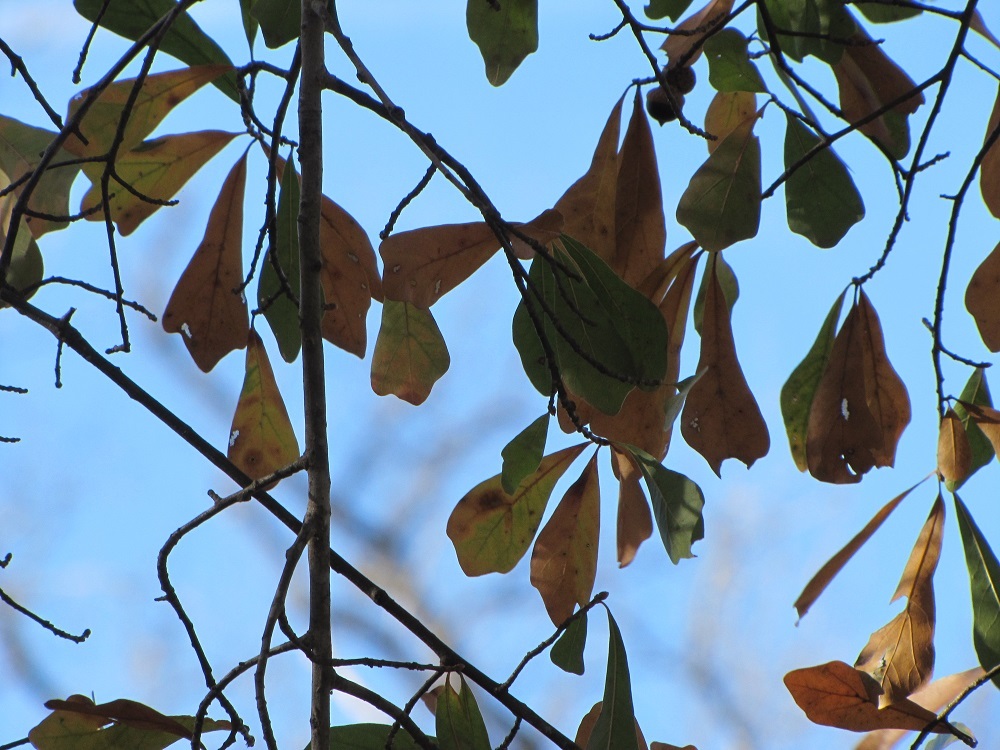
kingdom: Plantae
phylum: Tracheophyta
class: Magnoliopsida
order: Fagales
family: Fagaceae
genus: Quercus
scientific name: Quercus nigra
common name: Water oak
